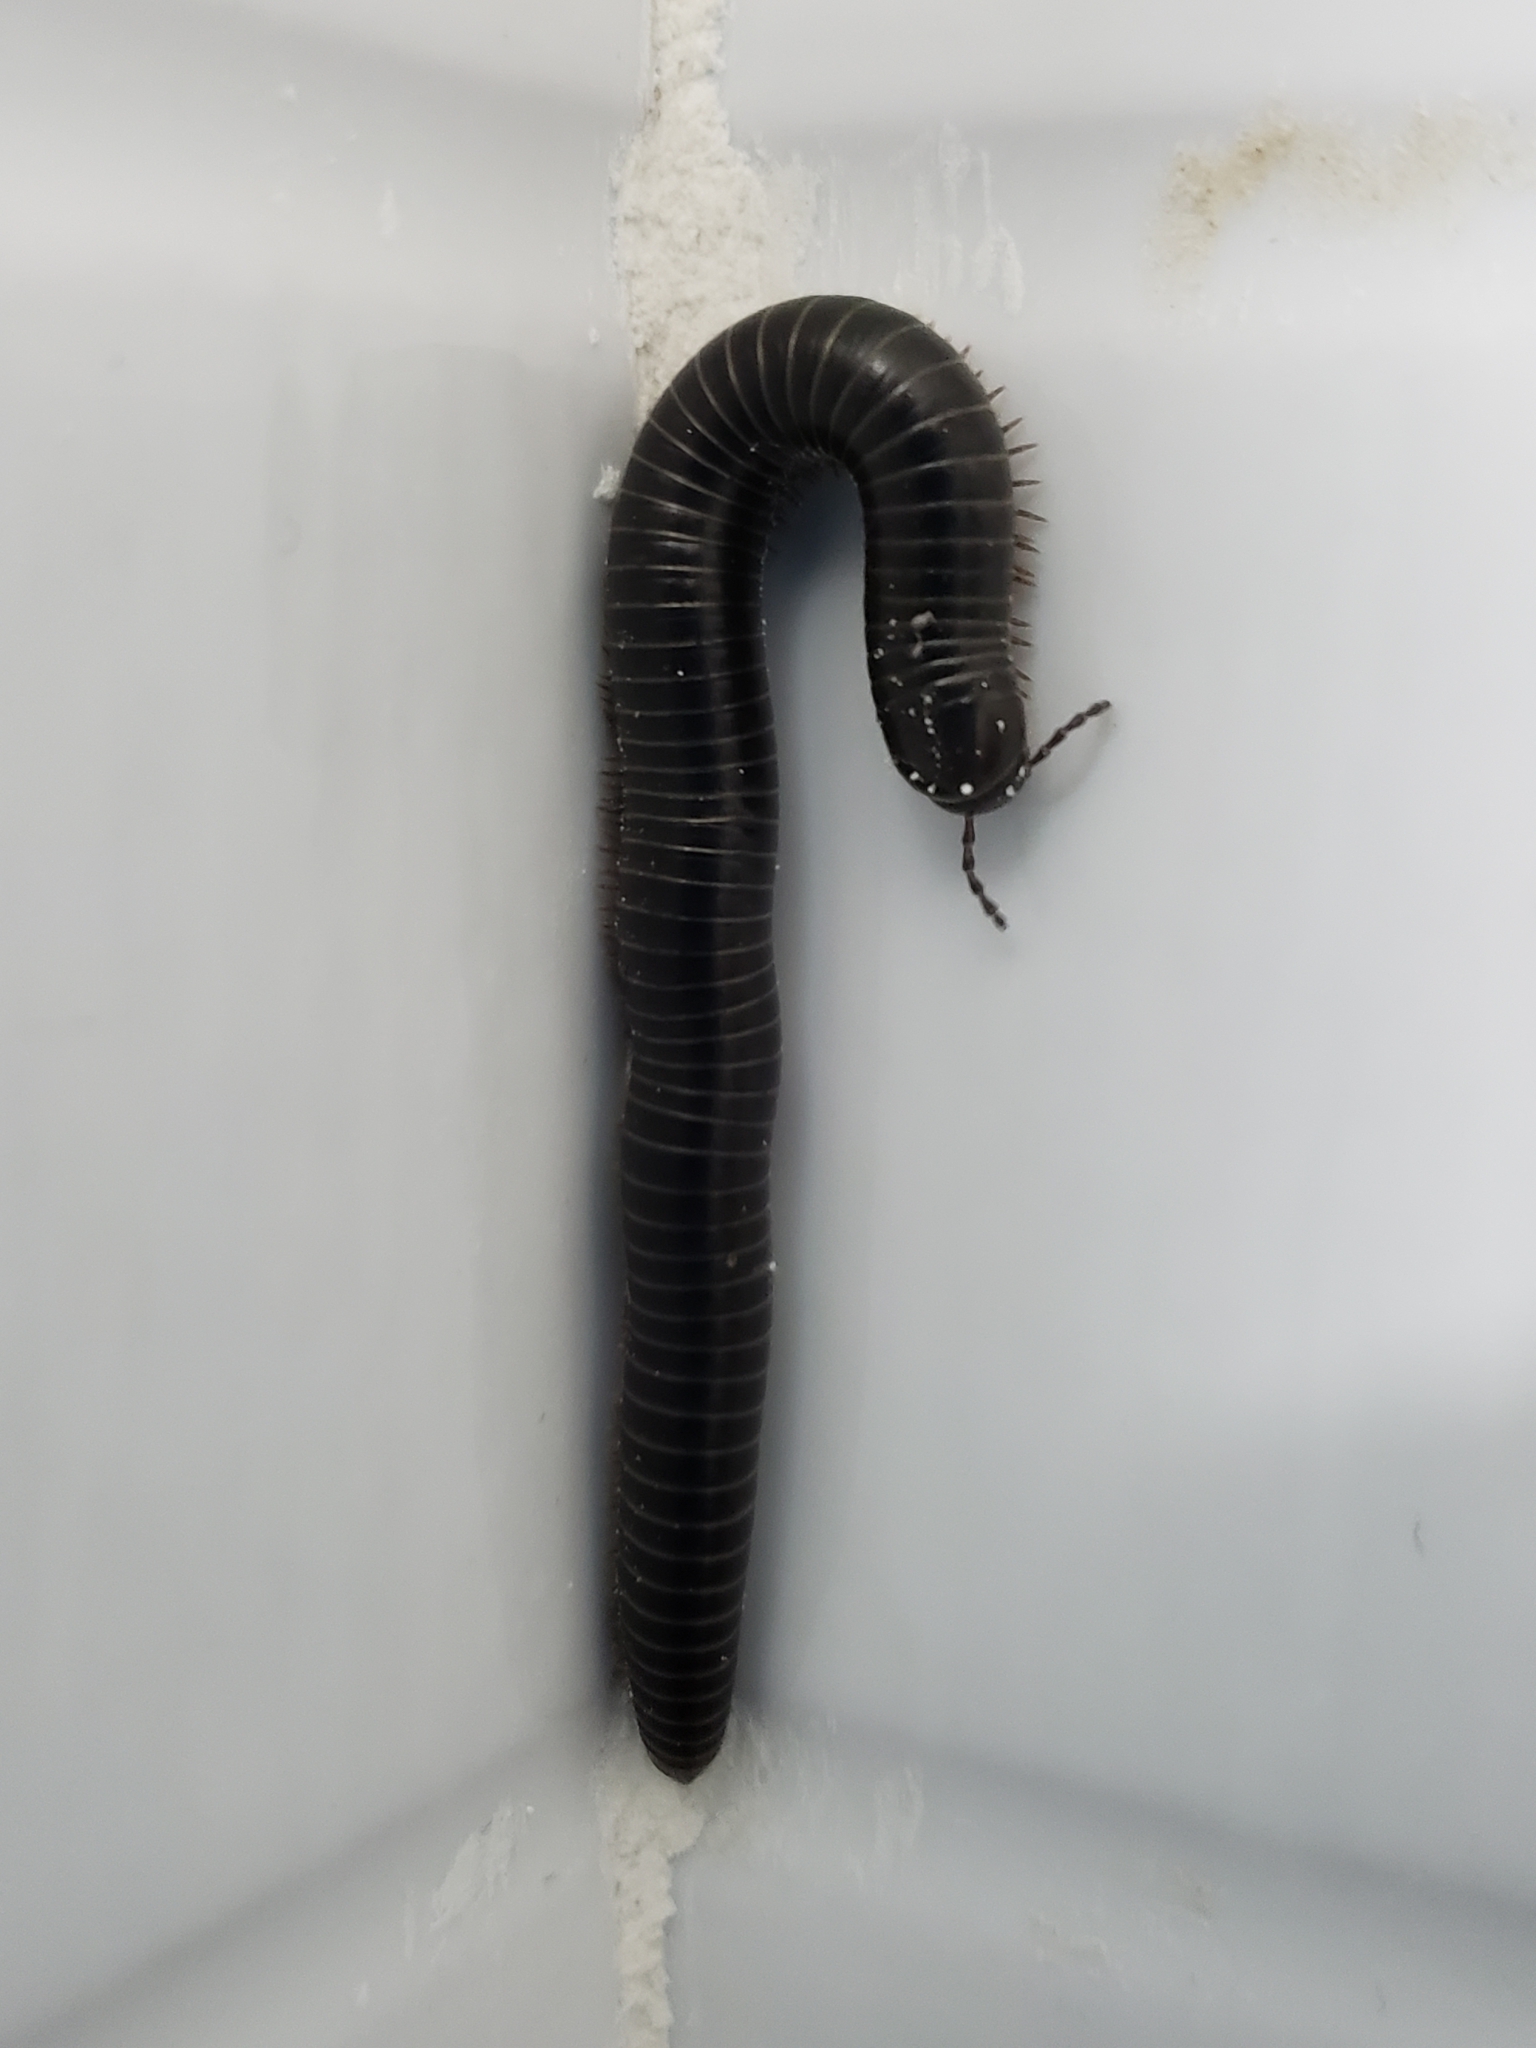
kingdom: Animalia
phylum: Arthropoda
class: Diplopoda
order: Spirostreptida
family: Spirostreptidae
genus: Archispirostreptus
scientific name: Archispirostreptus syriacus
